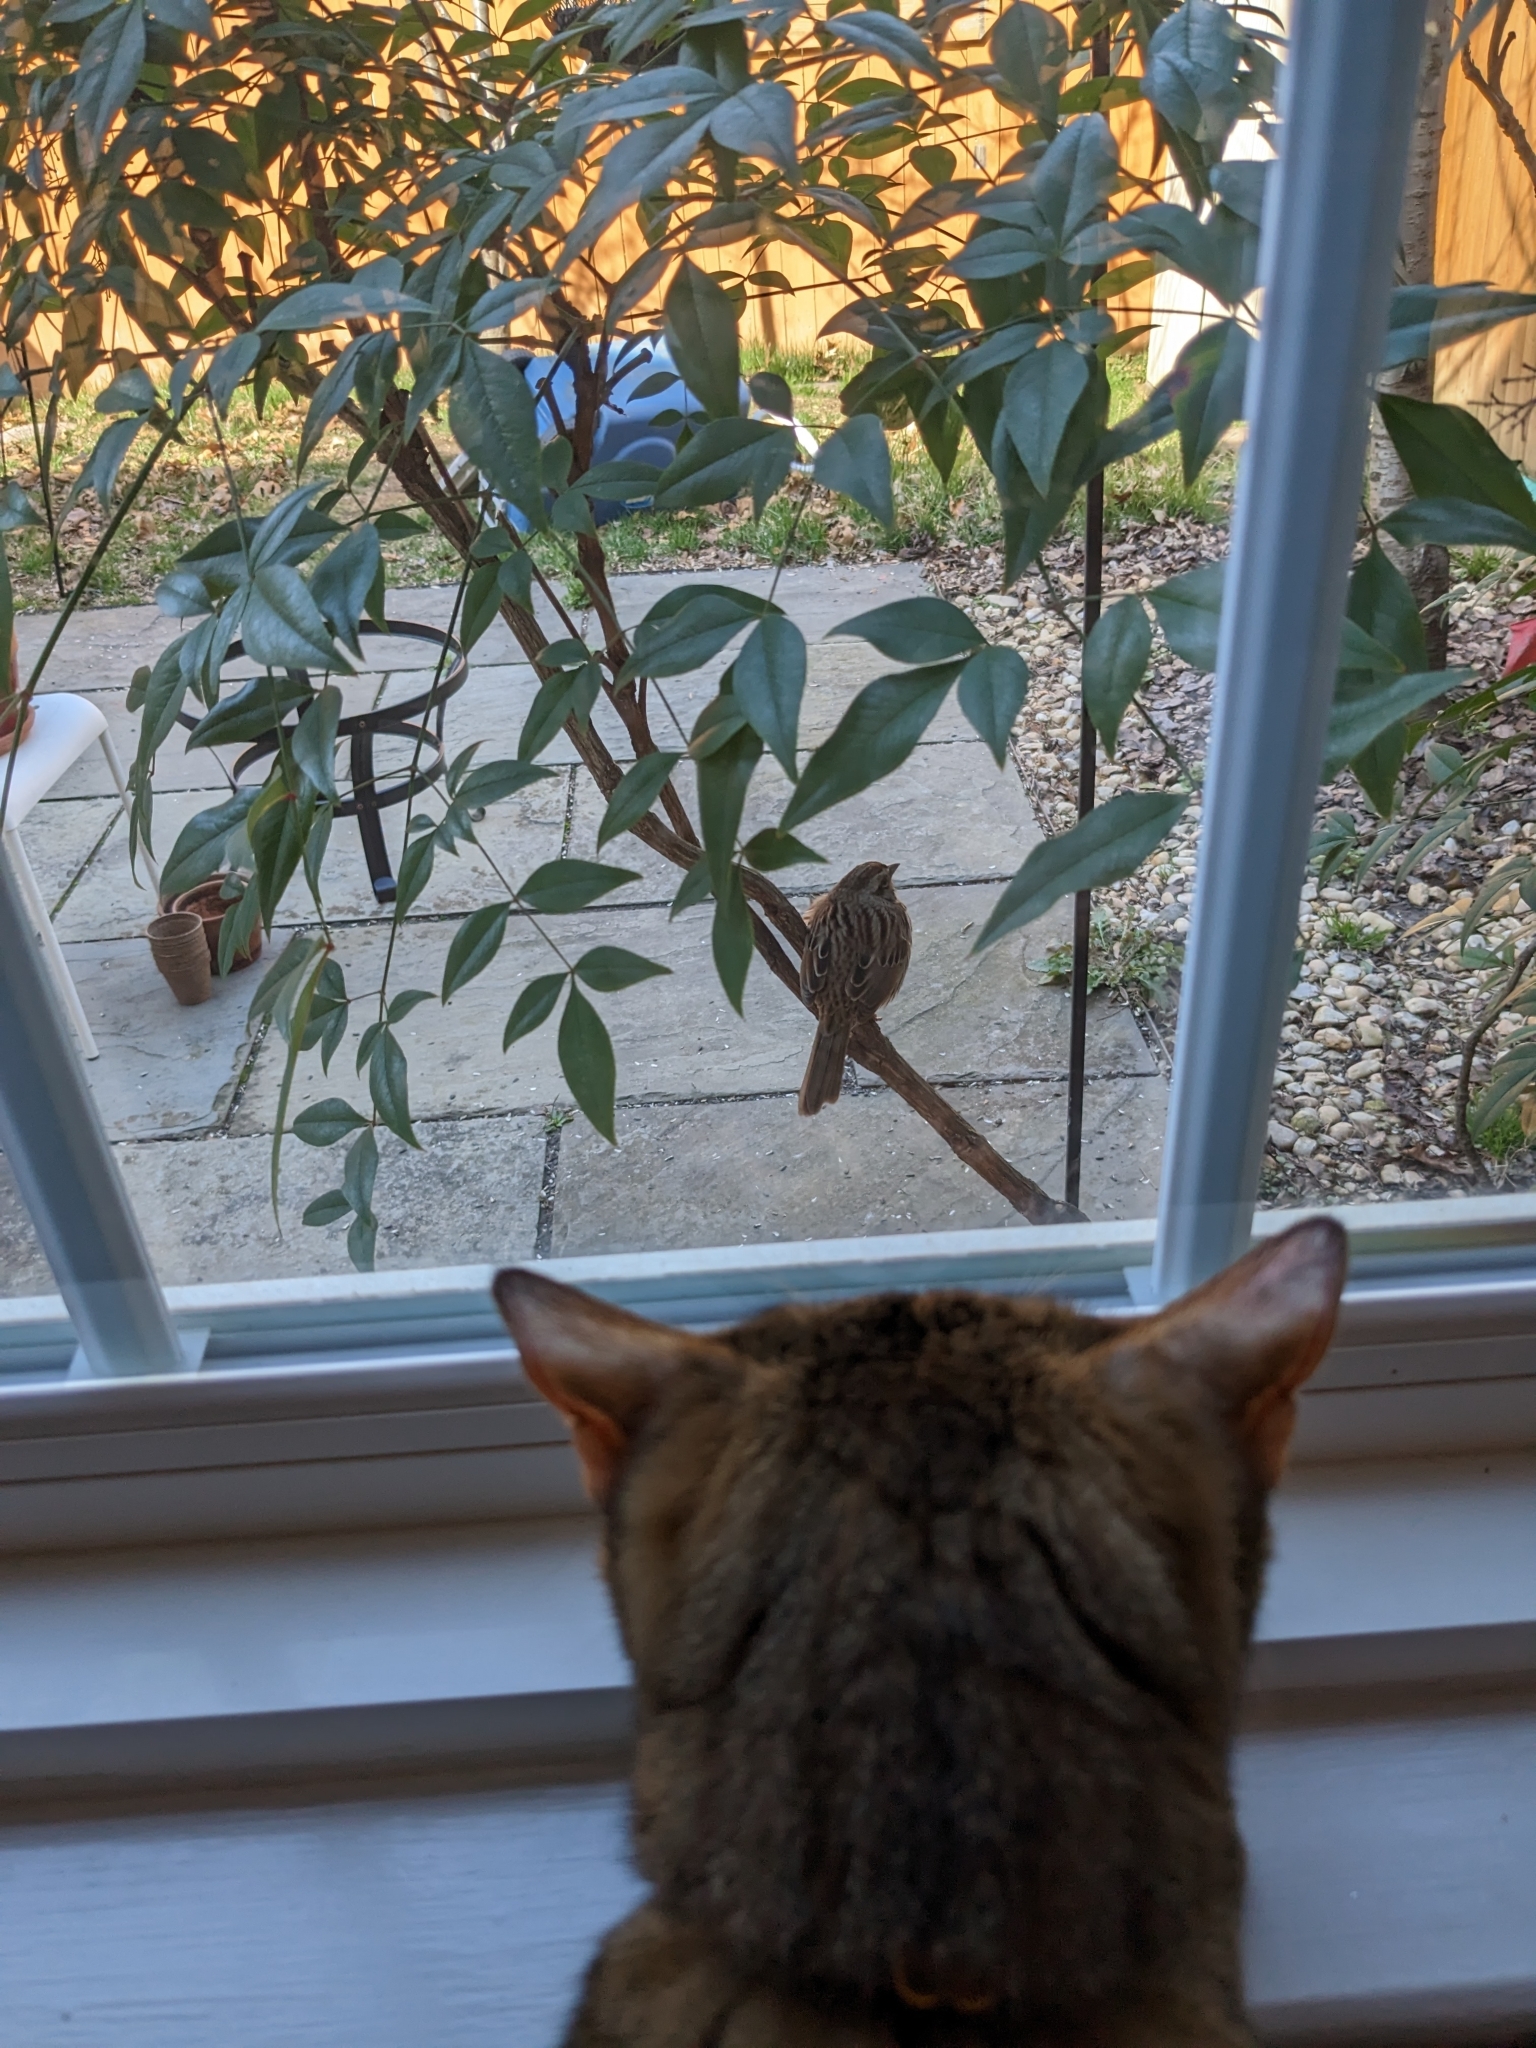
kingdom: Animalia
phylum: Chordata
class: Aves
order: Passeriformes
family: Passerellidae
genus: Melospiza
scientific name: Melospiza melodia
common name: Song sparrow
